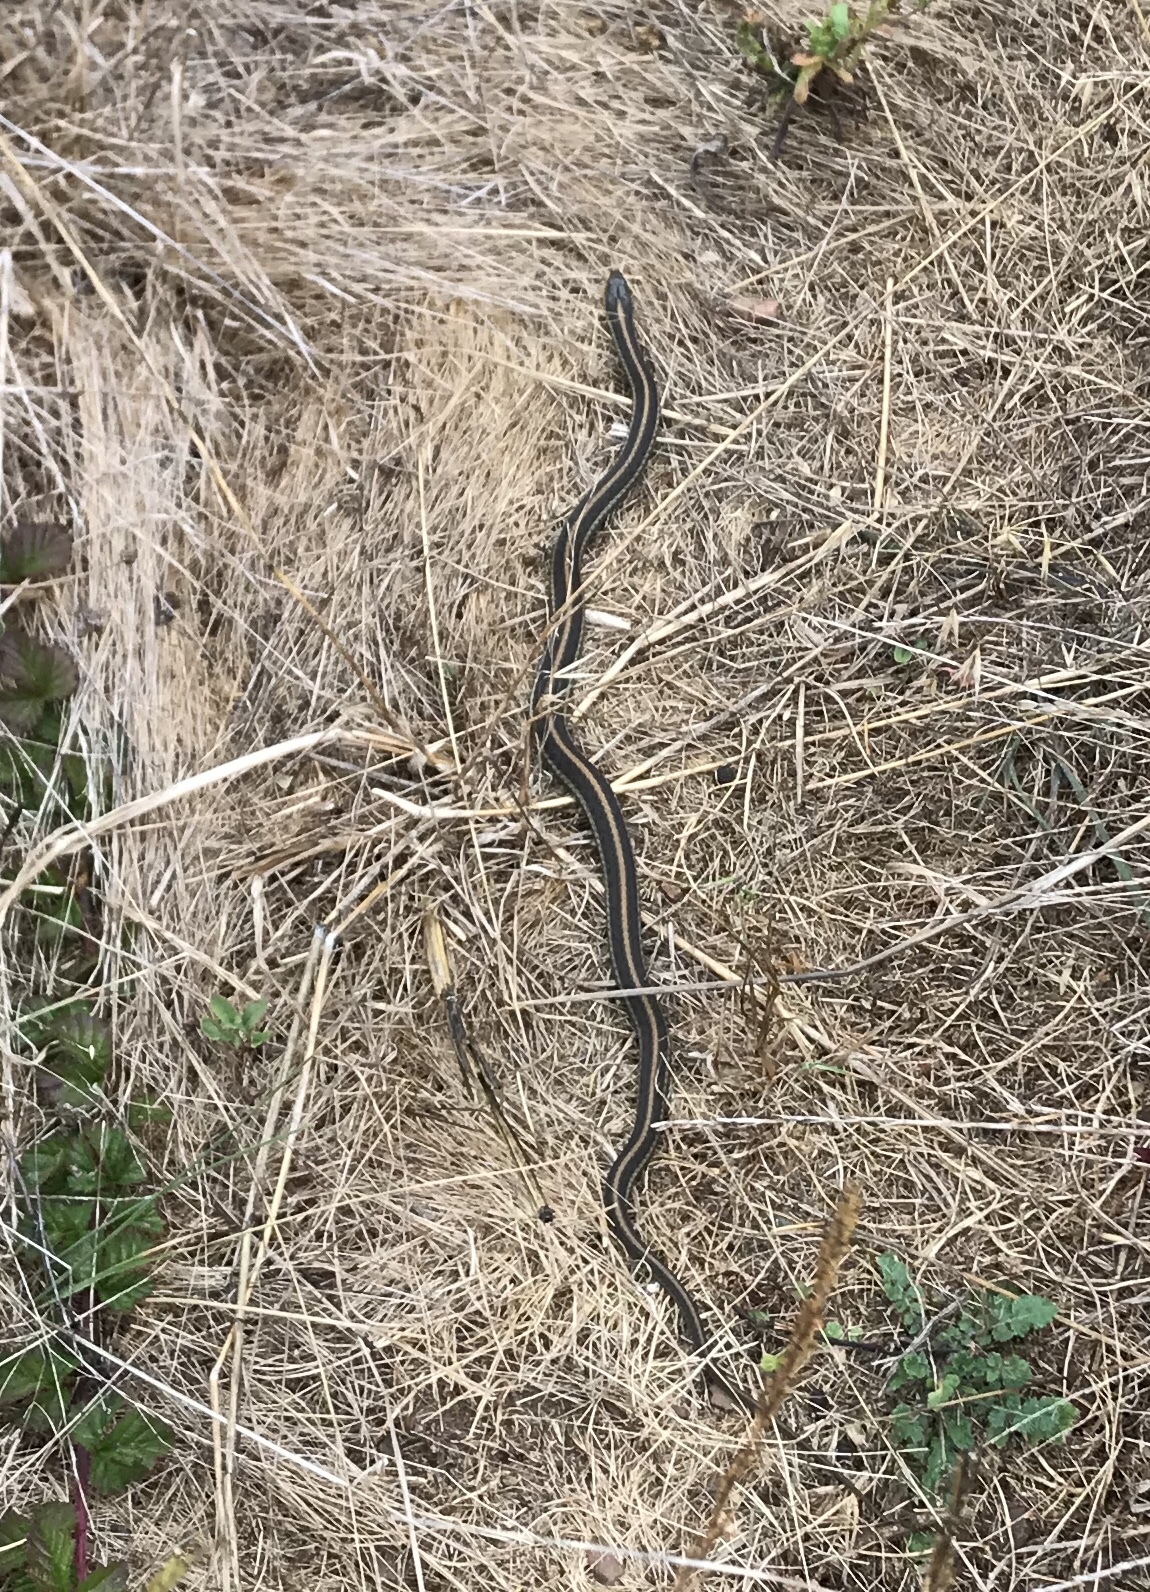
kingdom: Animalia
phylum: Chordata
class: Squamata
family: Colubridae
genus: Thamnophis
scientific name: Thamnophis atratus
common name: Pacific coast aquatic garter snake
